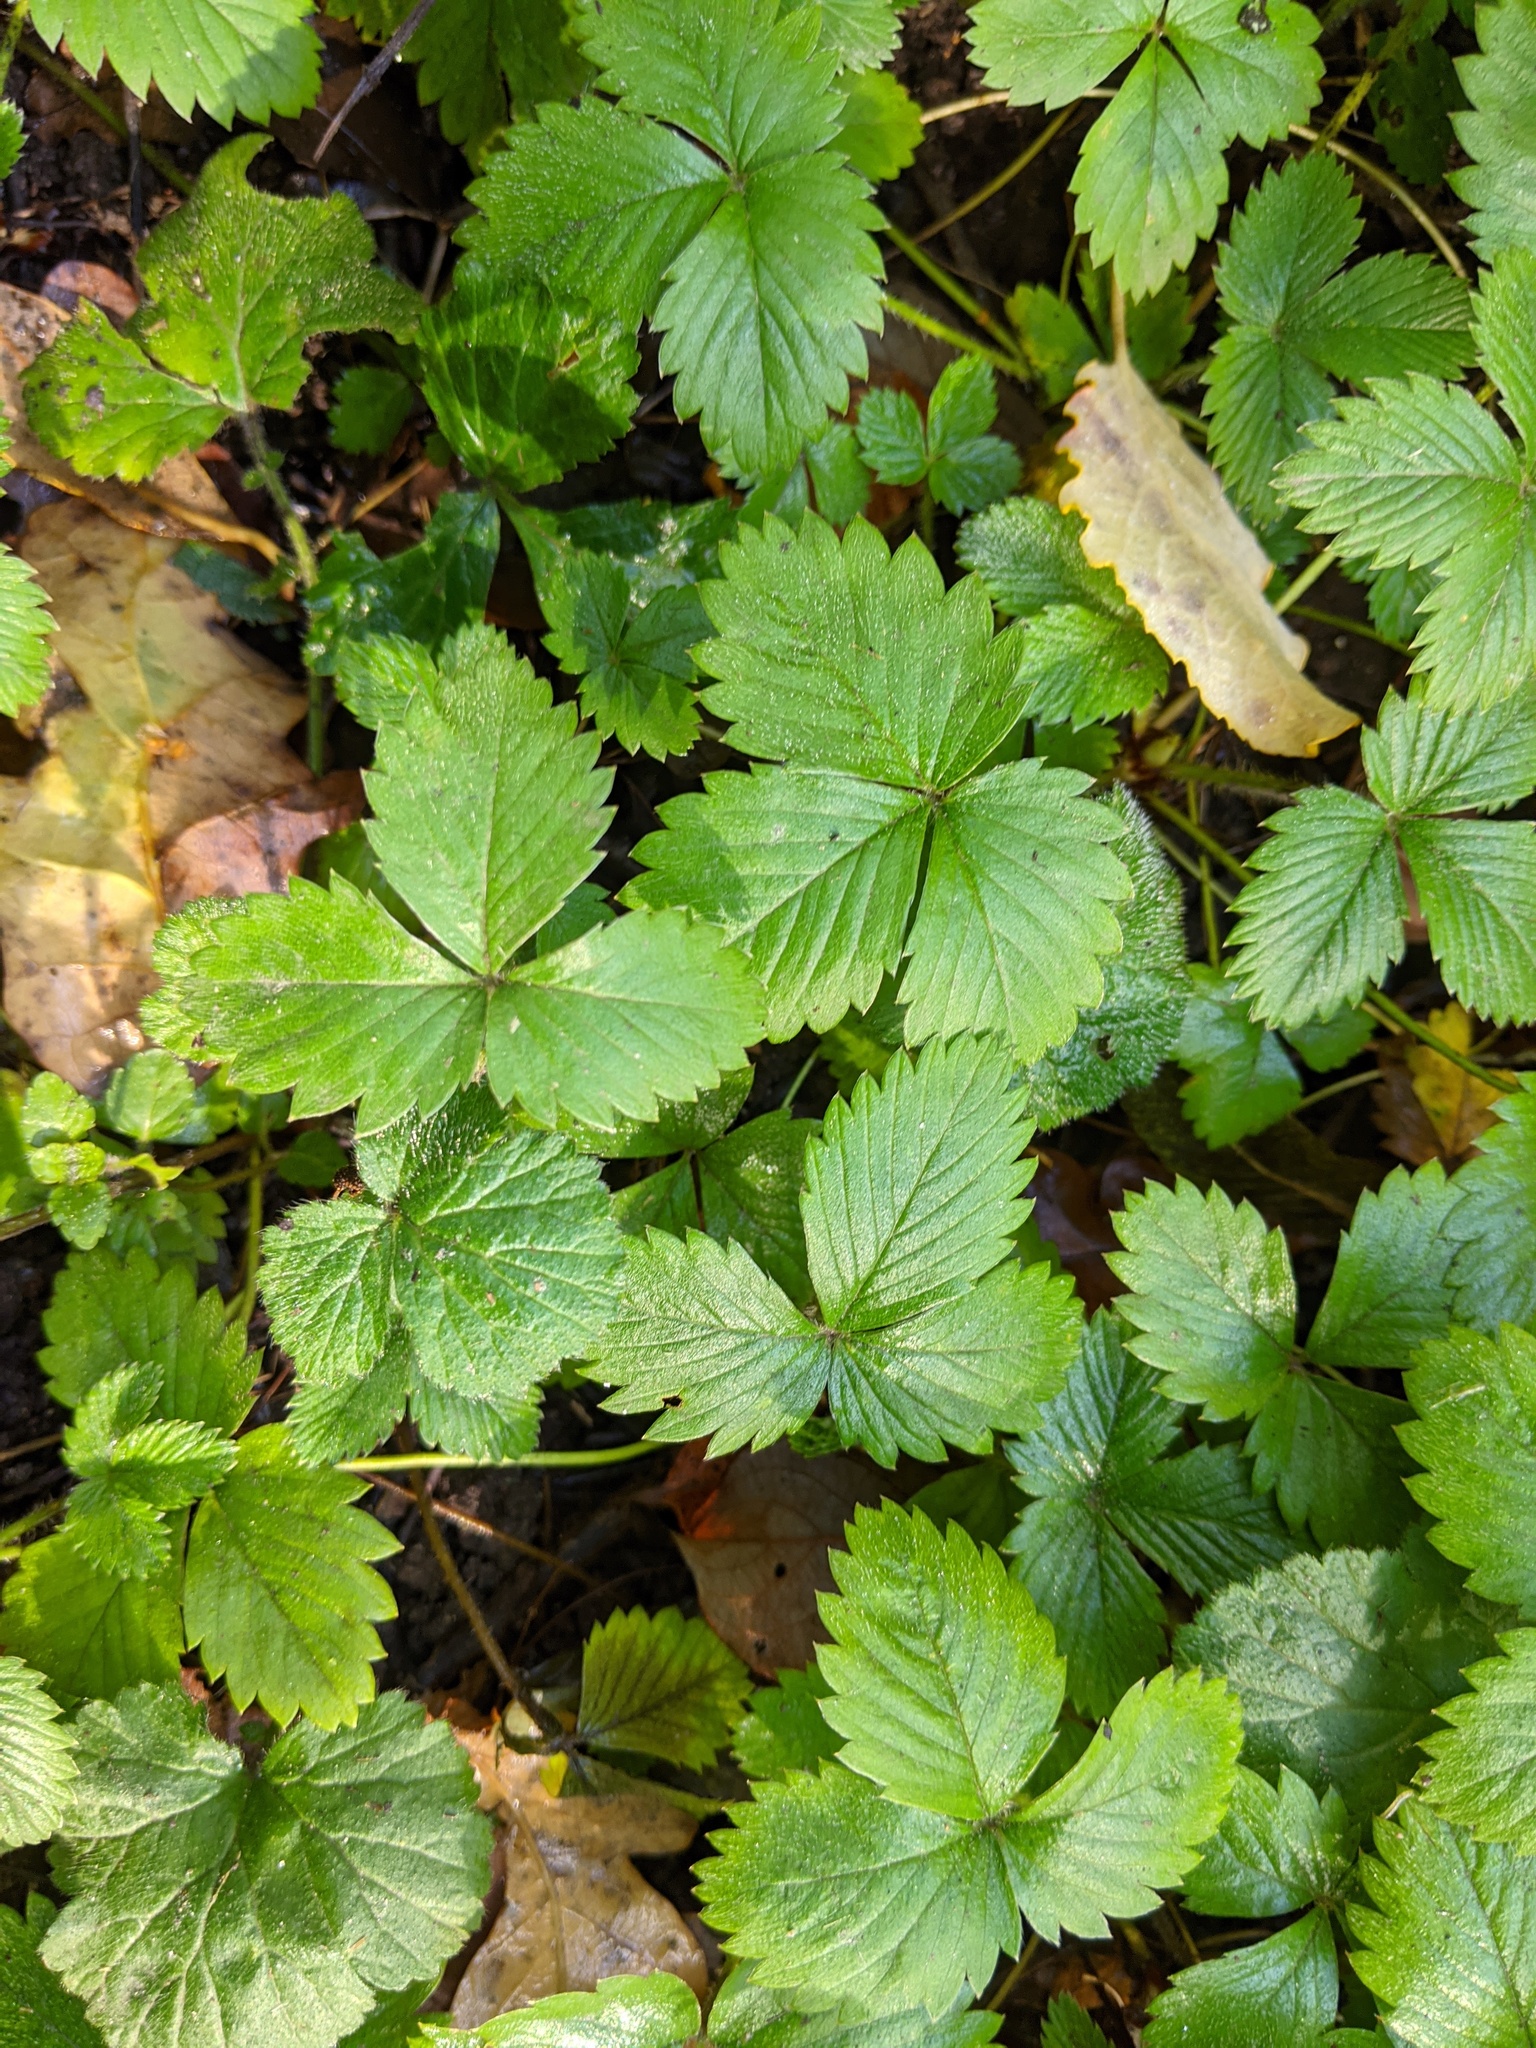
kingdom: Plantae
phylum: Tracheophyta
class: Magnoliopsida
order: Rosales
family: Rosaceae
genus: Fragaria
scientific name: Fragaria vesca
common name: Wild strawberry
